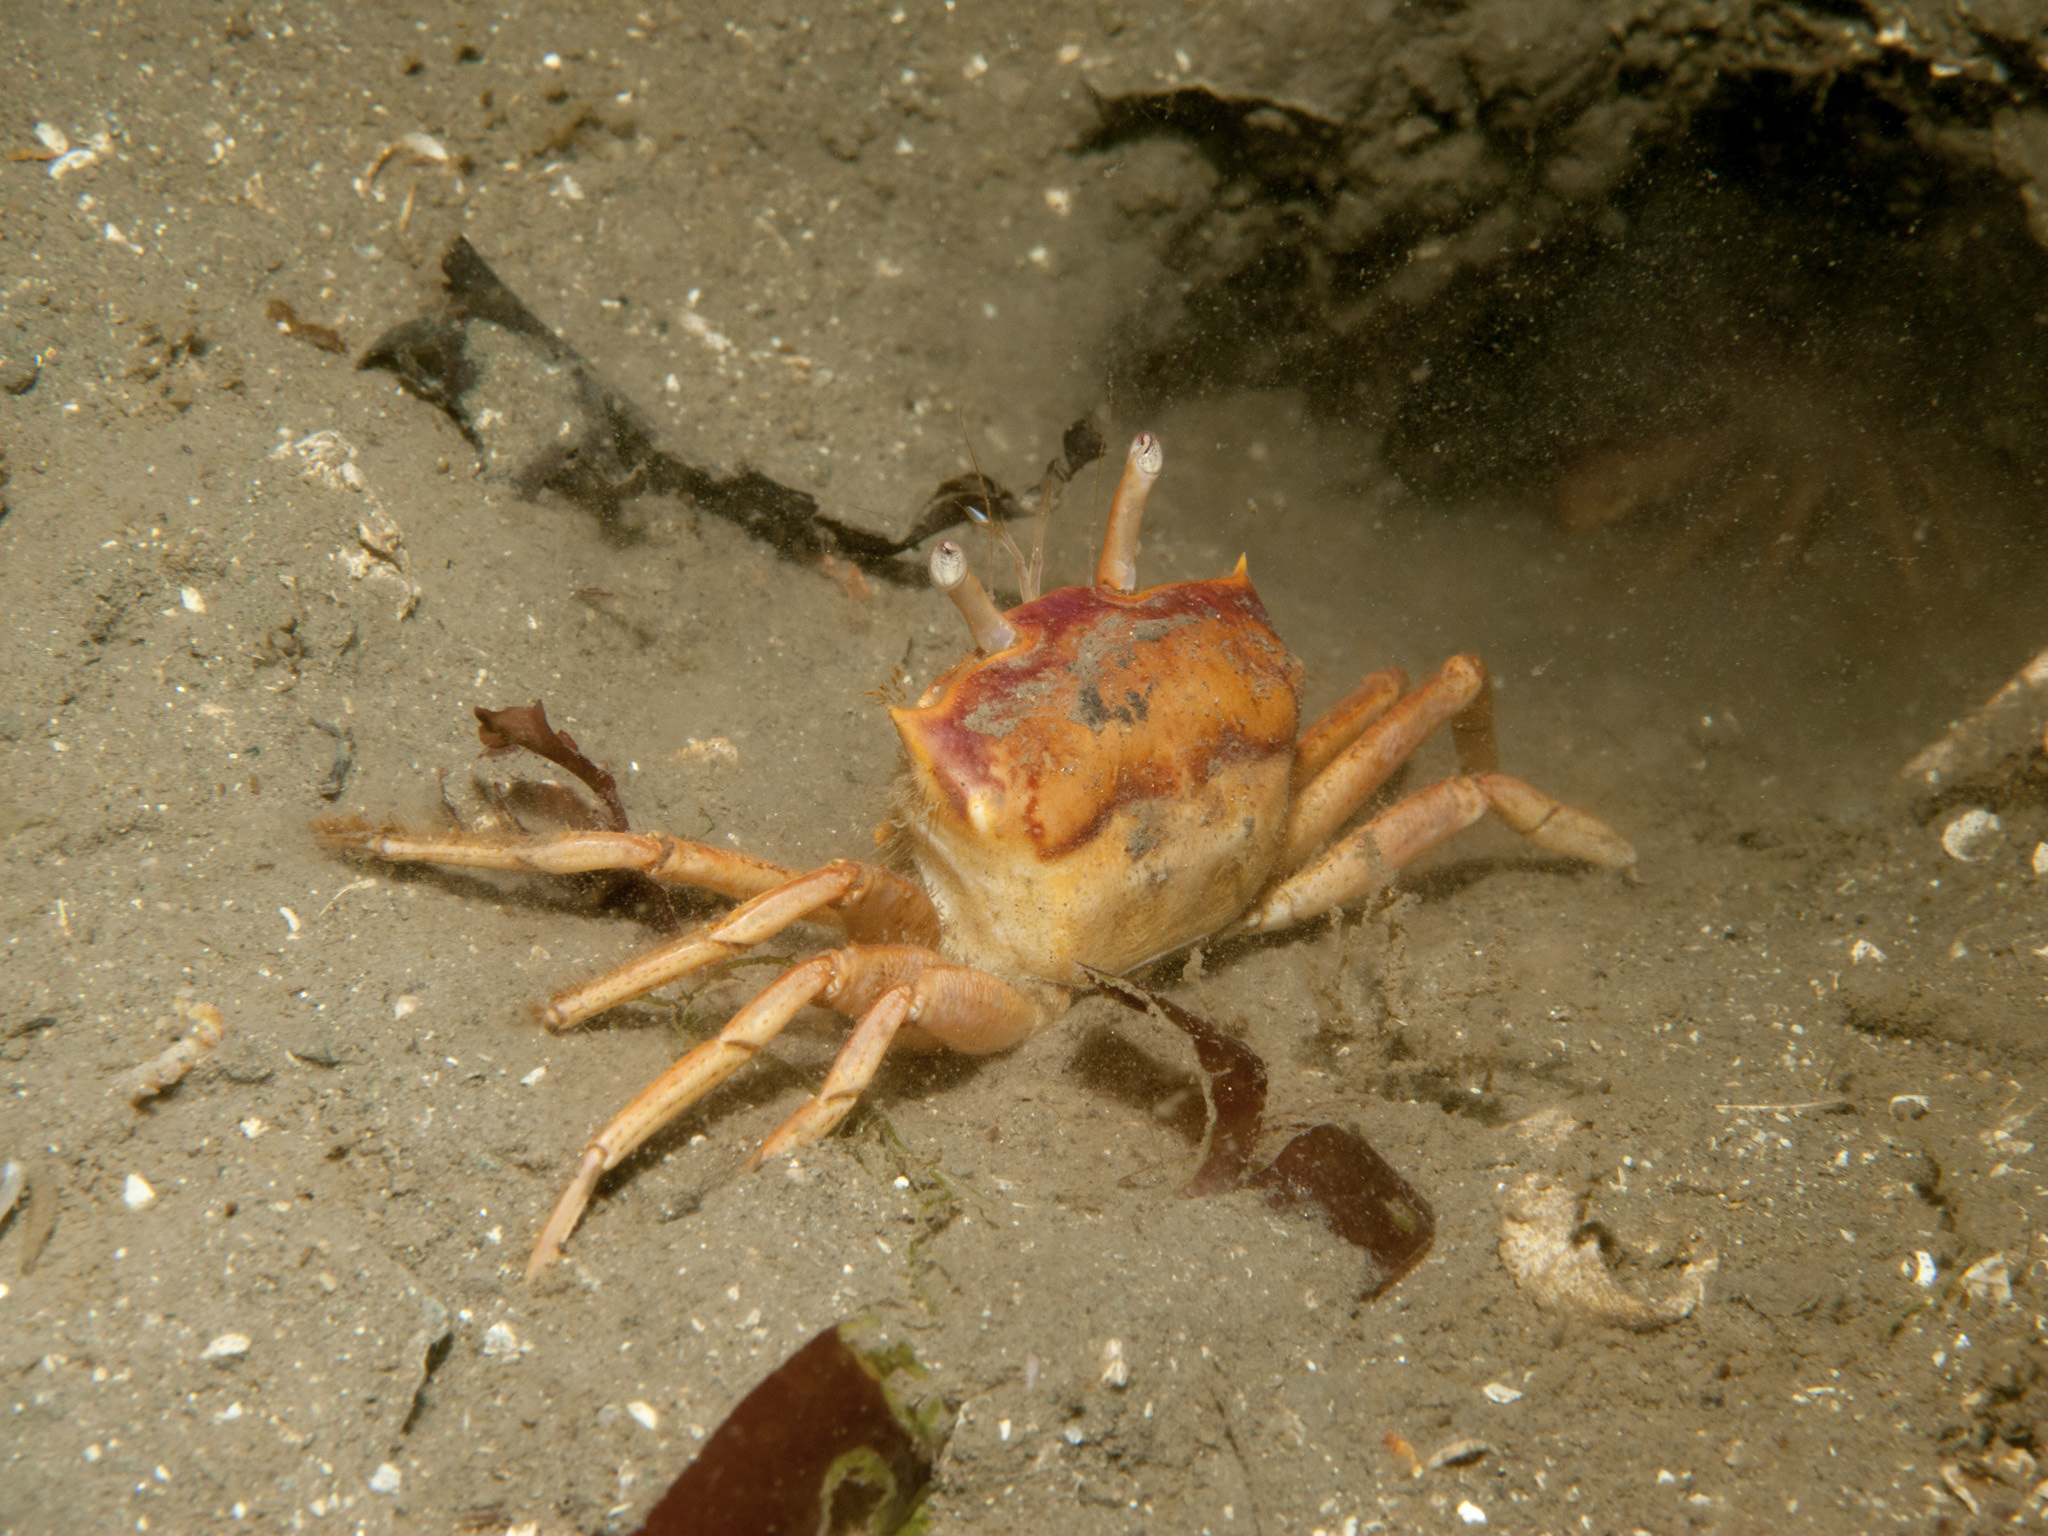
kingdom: Animalia
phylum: Arthropoda
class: Malacostraca
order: Decapoda
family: Goneplacidae
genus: Goneplax
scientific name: Goneplax rhomboides
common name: Angular crab
